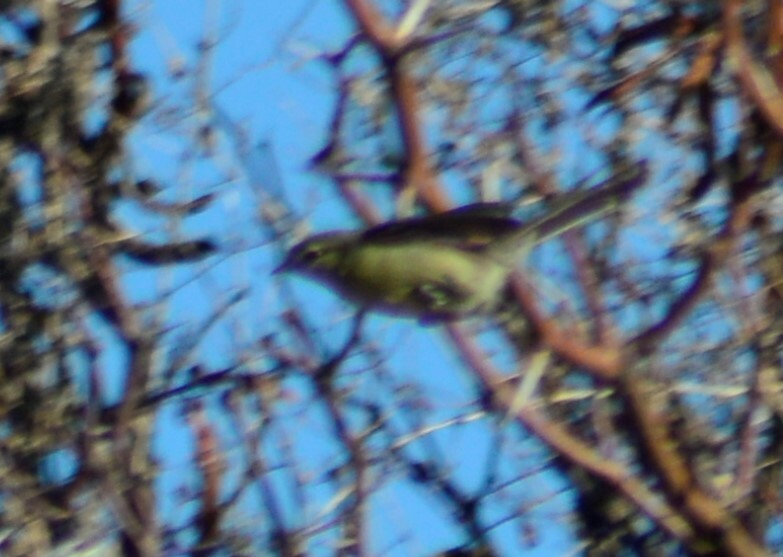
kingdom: Animalia
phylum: Chordata
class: Aves
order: Passeriformes
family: Tyrannidae
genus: Stigmatura
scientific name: Stigmatura budytoides
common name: Greater wagtail-tyrant
